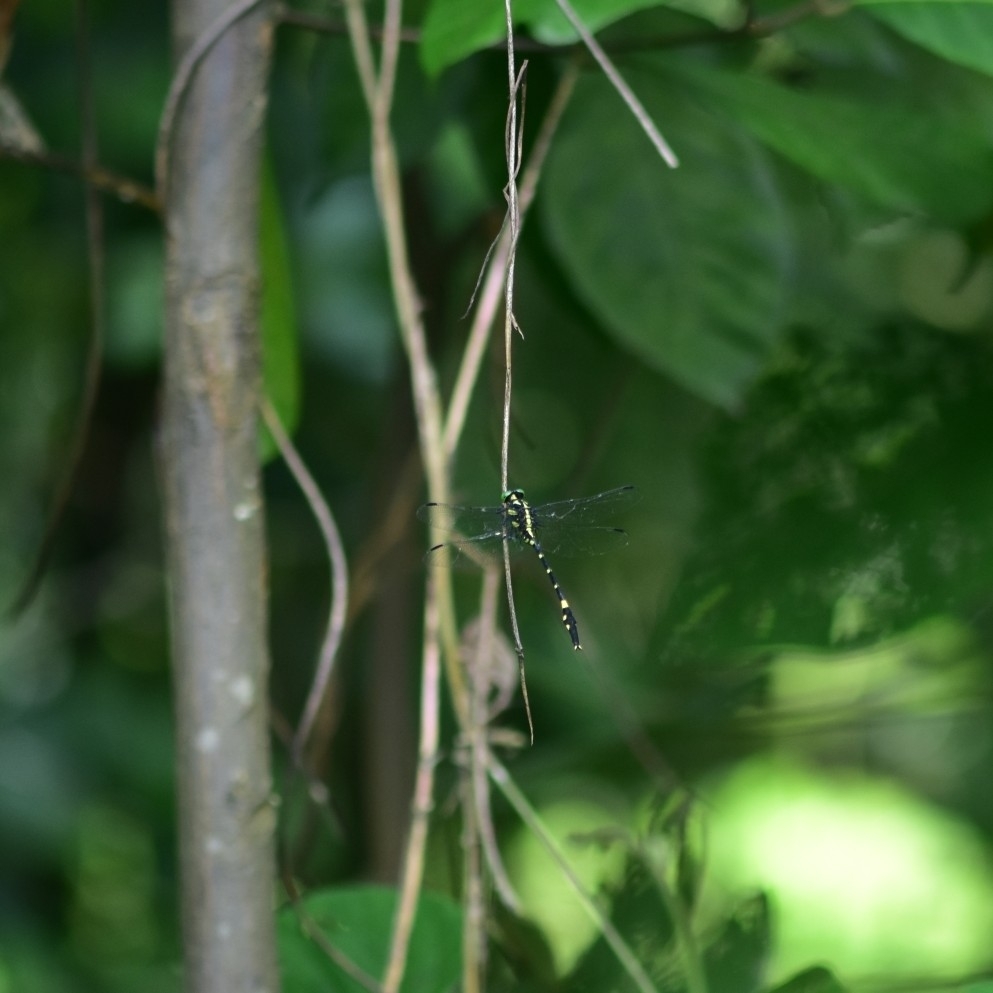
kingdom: Animalia
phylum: Arthropoda
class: Insecta
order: Odonata
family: Gomphidae
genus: Macrogomphus
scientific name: Macrogomphus wynaadicus
